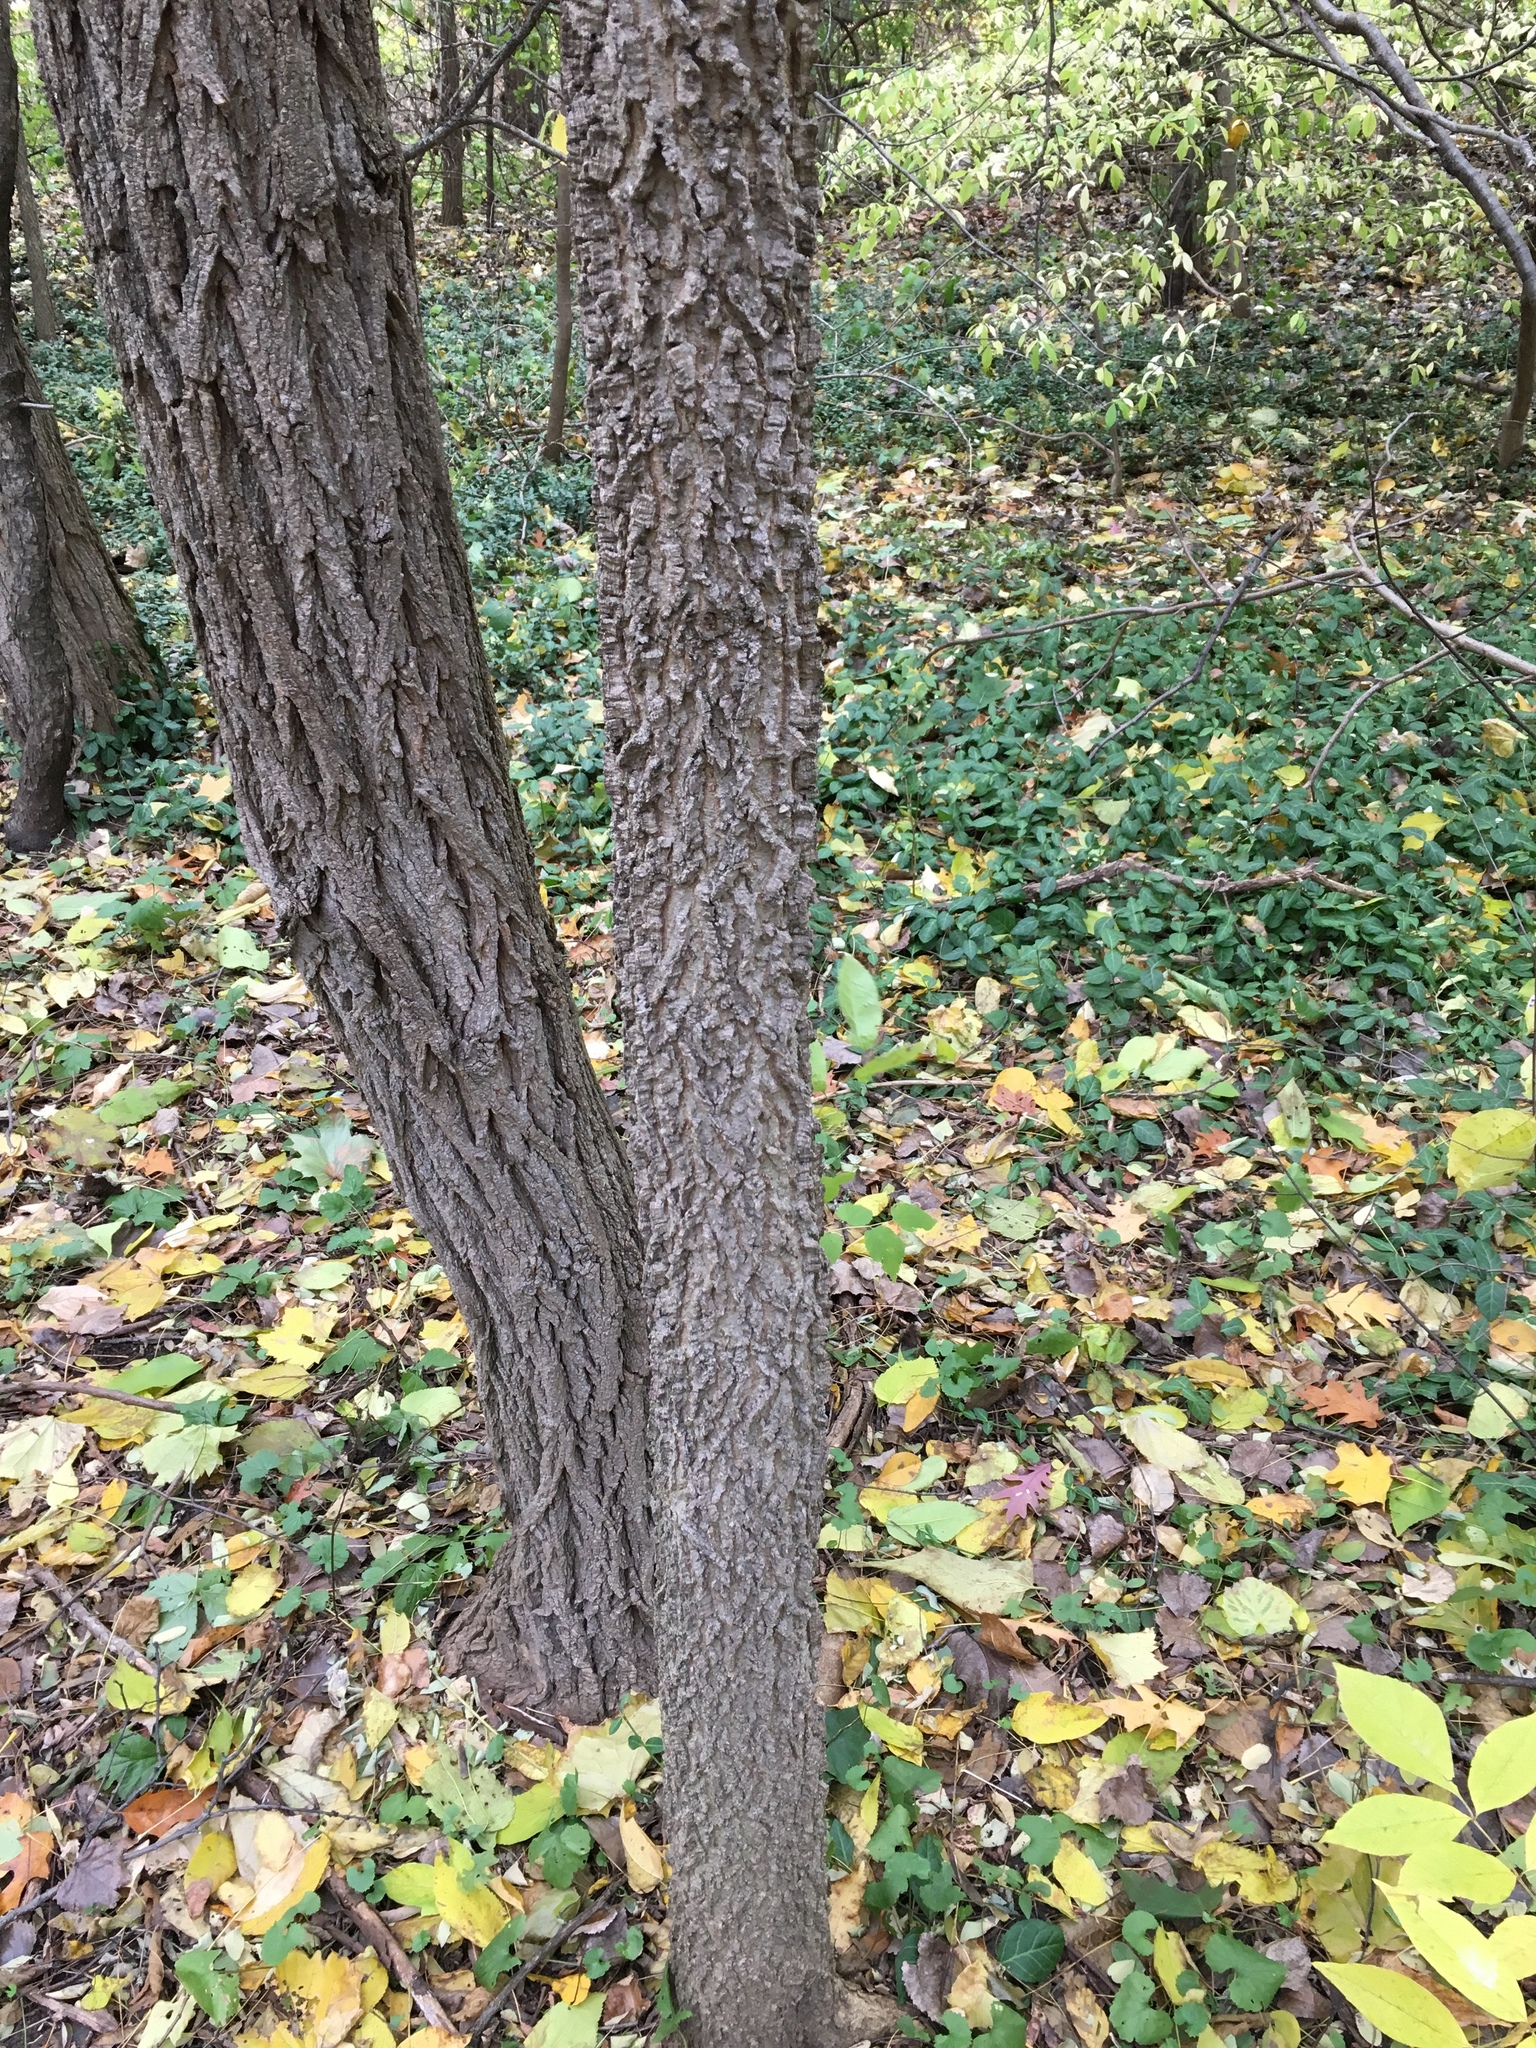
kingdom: Plantae
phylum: Tracheophyta
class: Magnoliopsida
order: Rosales
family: Cannabaceae
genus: Celtis
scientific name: Celtis occidentalis
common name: Common hackberry
